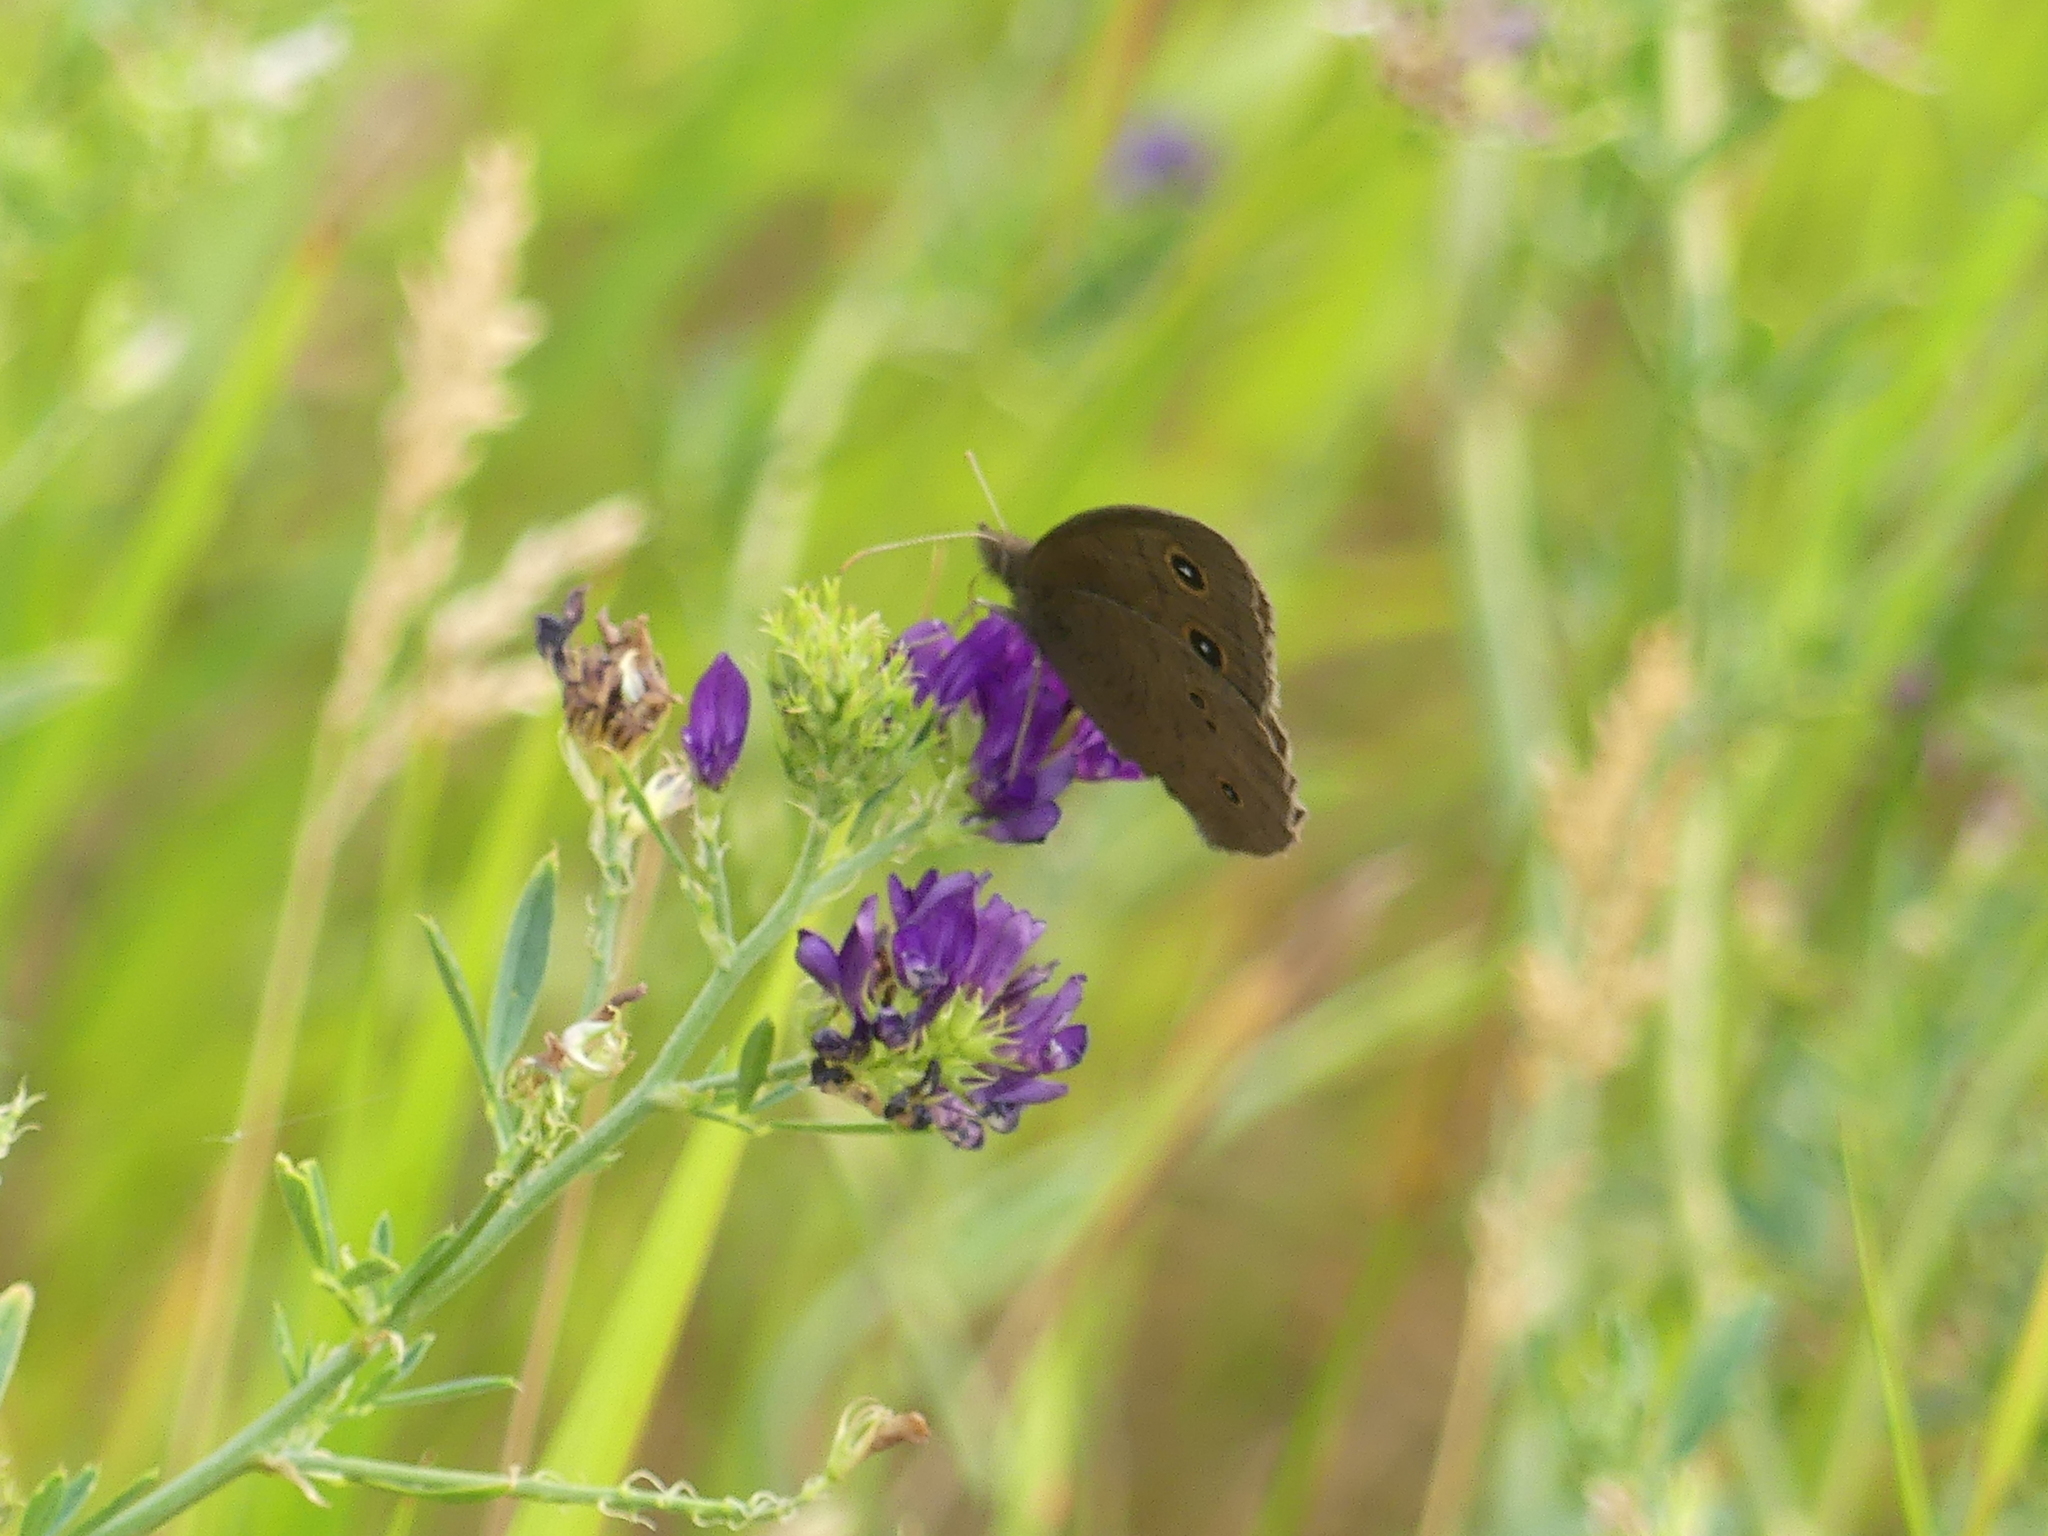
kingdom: Animalia
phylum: Arthropoda
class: Insecta
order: Lepidoptera
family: Nymphalidae
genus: Cercyonis
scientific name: Cercyonis pegala
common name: Common wood-nymph
